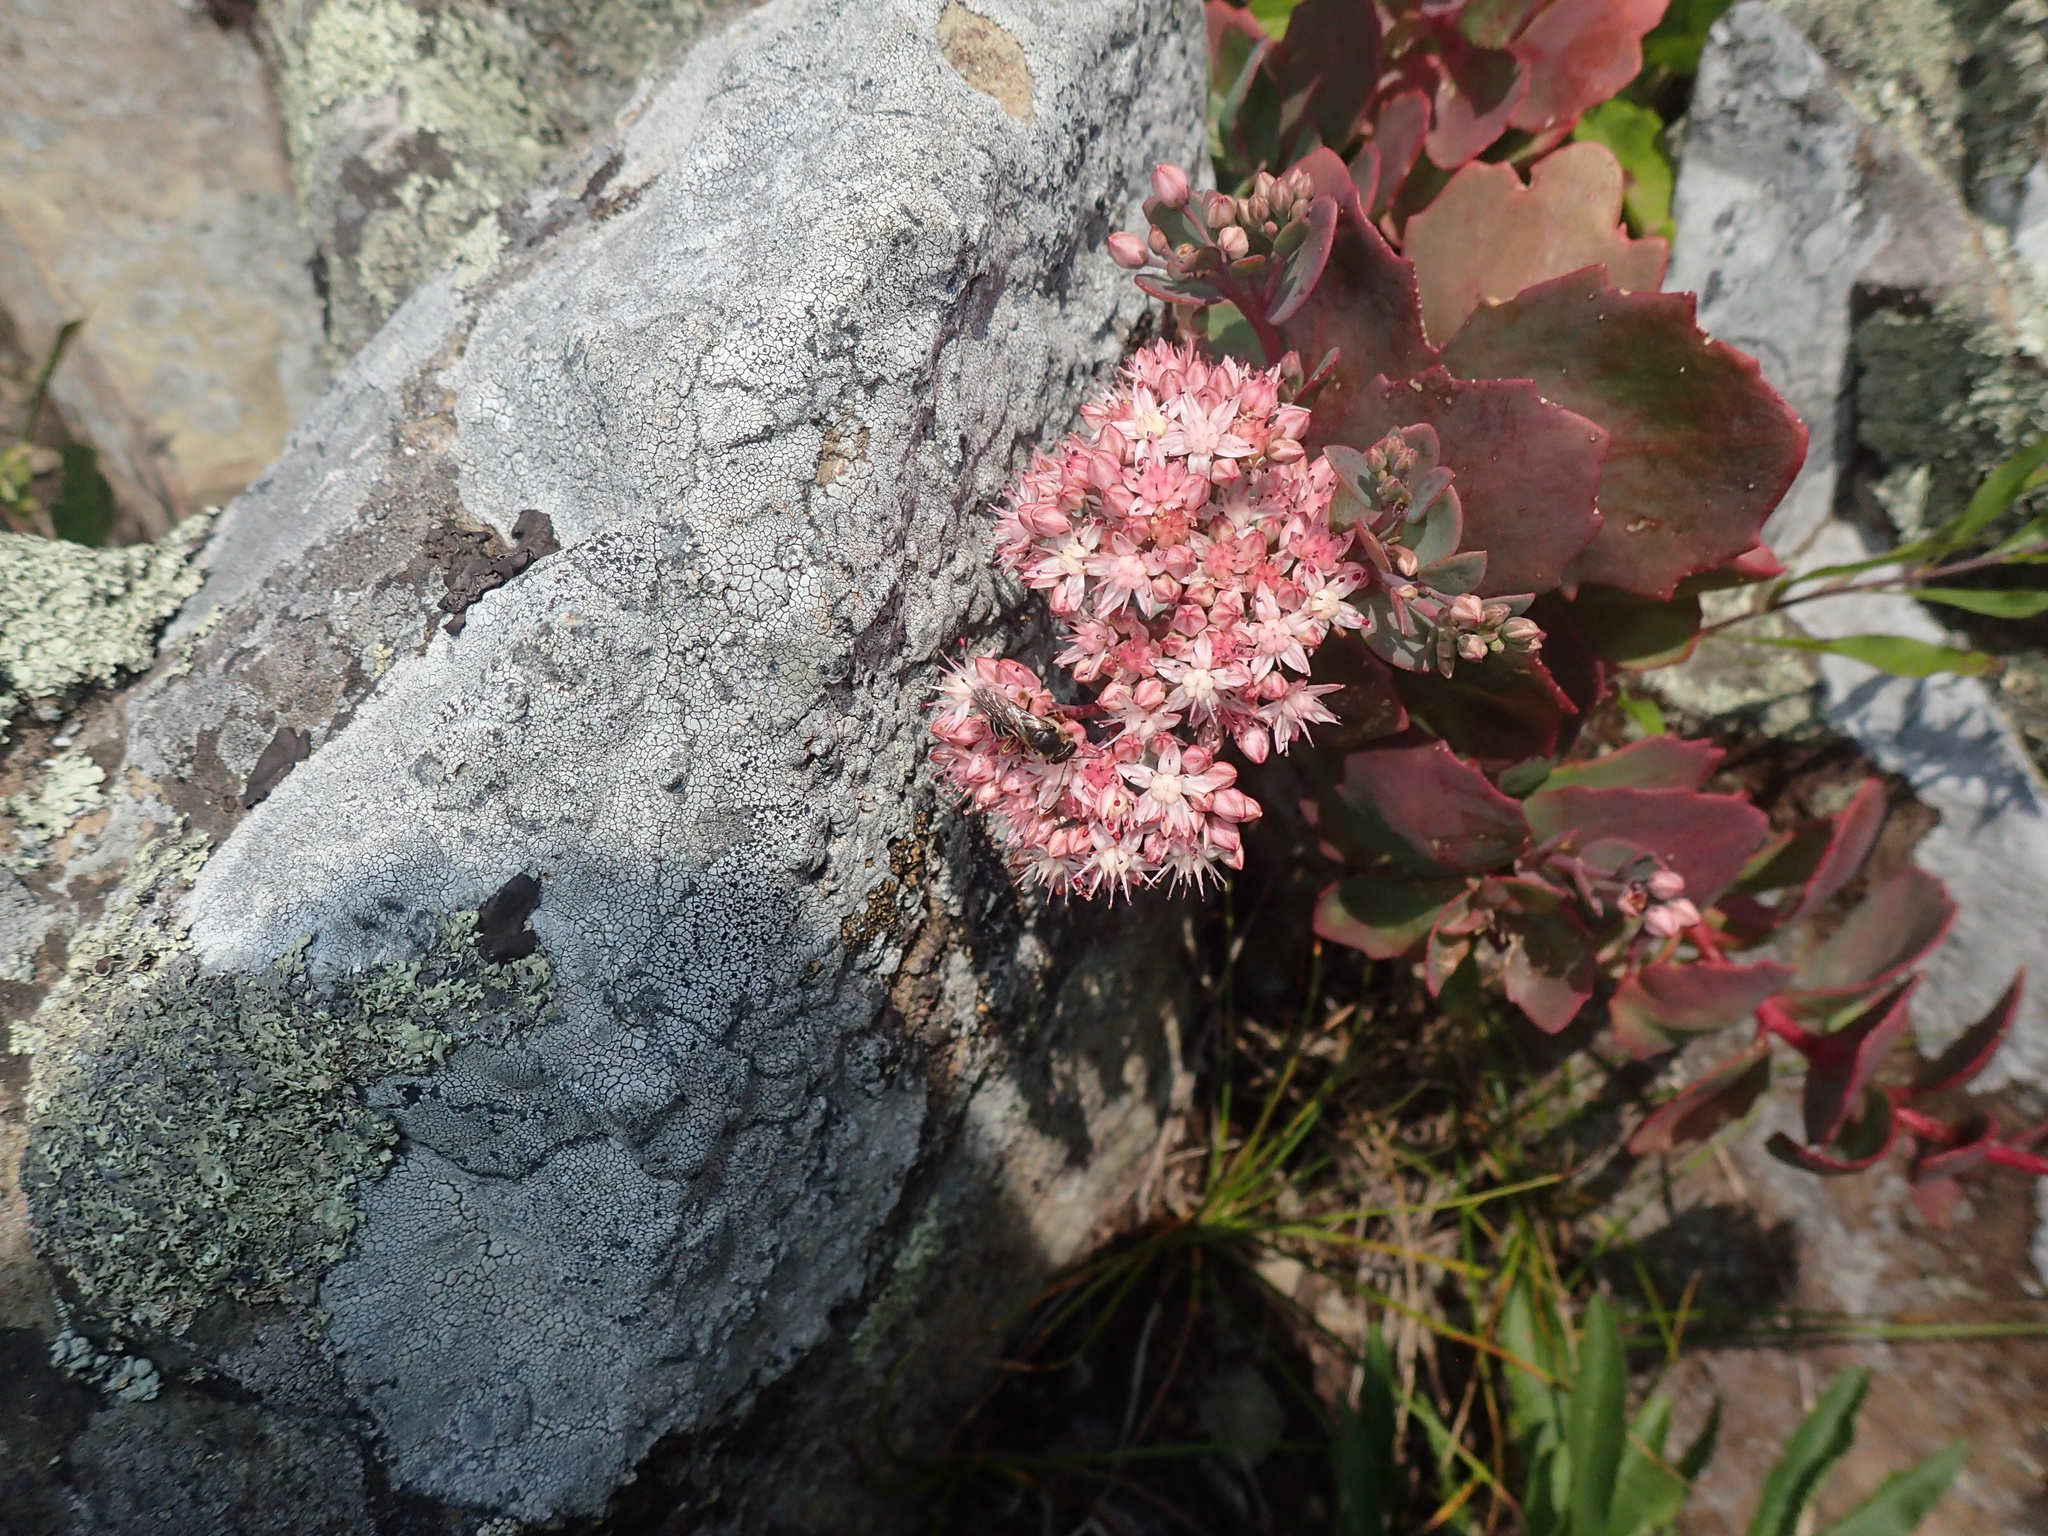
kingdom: Plantae
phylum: Tracheophyta
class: Magnoliopsida
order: Saxifragales
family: Crassulaceae
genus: Hylotelephium
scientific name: Hylotelephium telephioides
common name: Allegheny stonecrop
